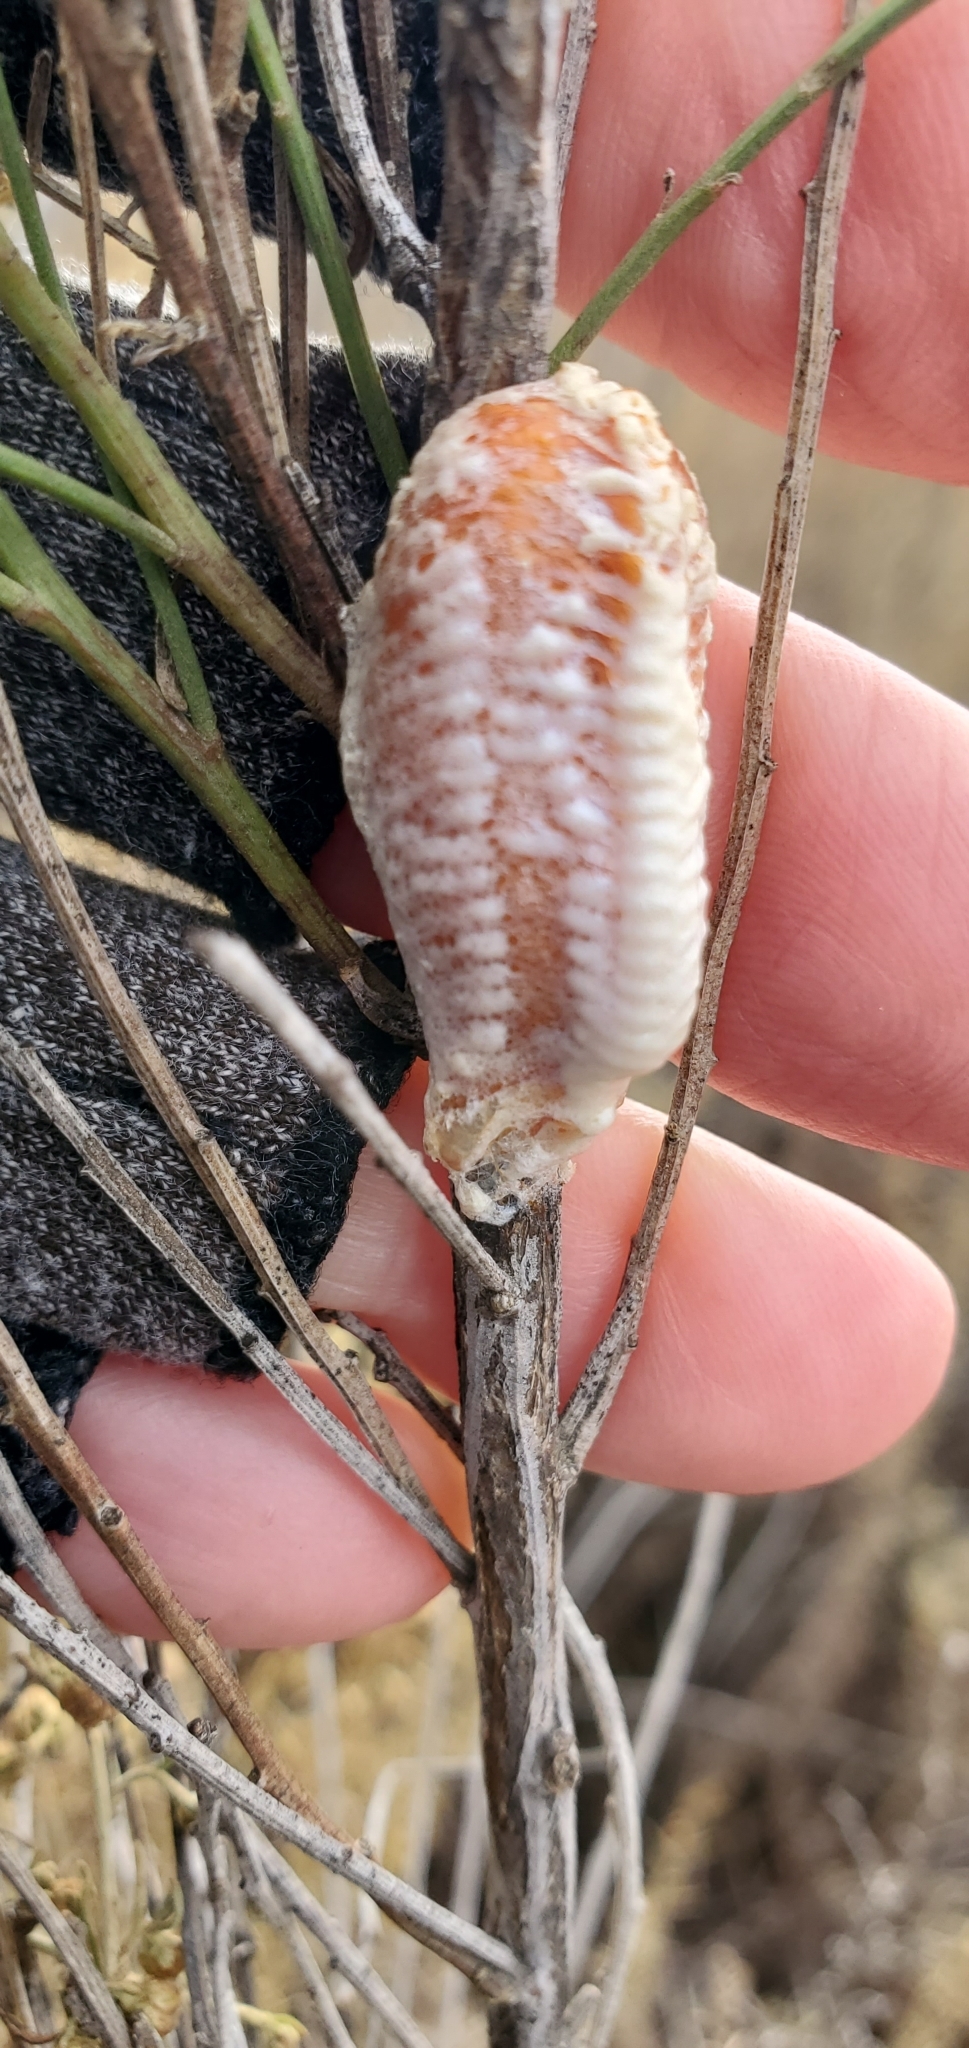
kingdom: Animalia
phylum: Arthropoda
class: Insecta
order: Mantodea
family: Mantidae
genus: Stagmomantis
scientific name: Stagmomantis limbata
